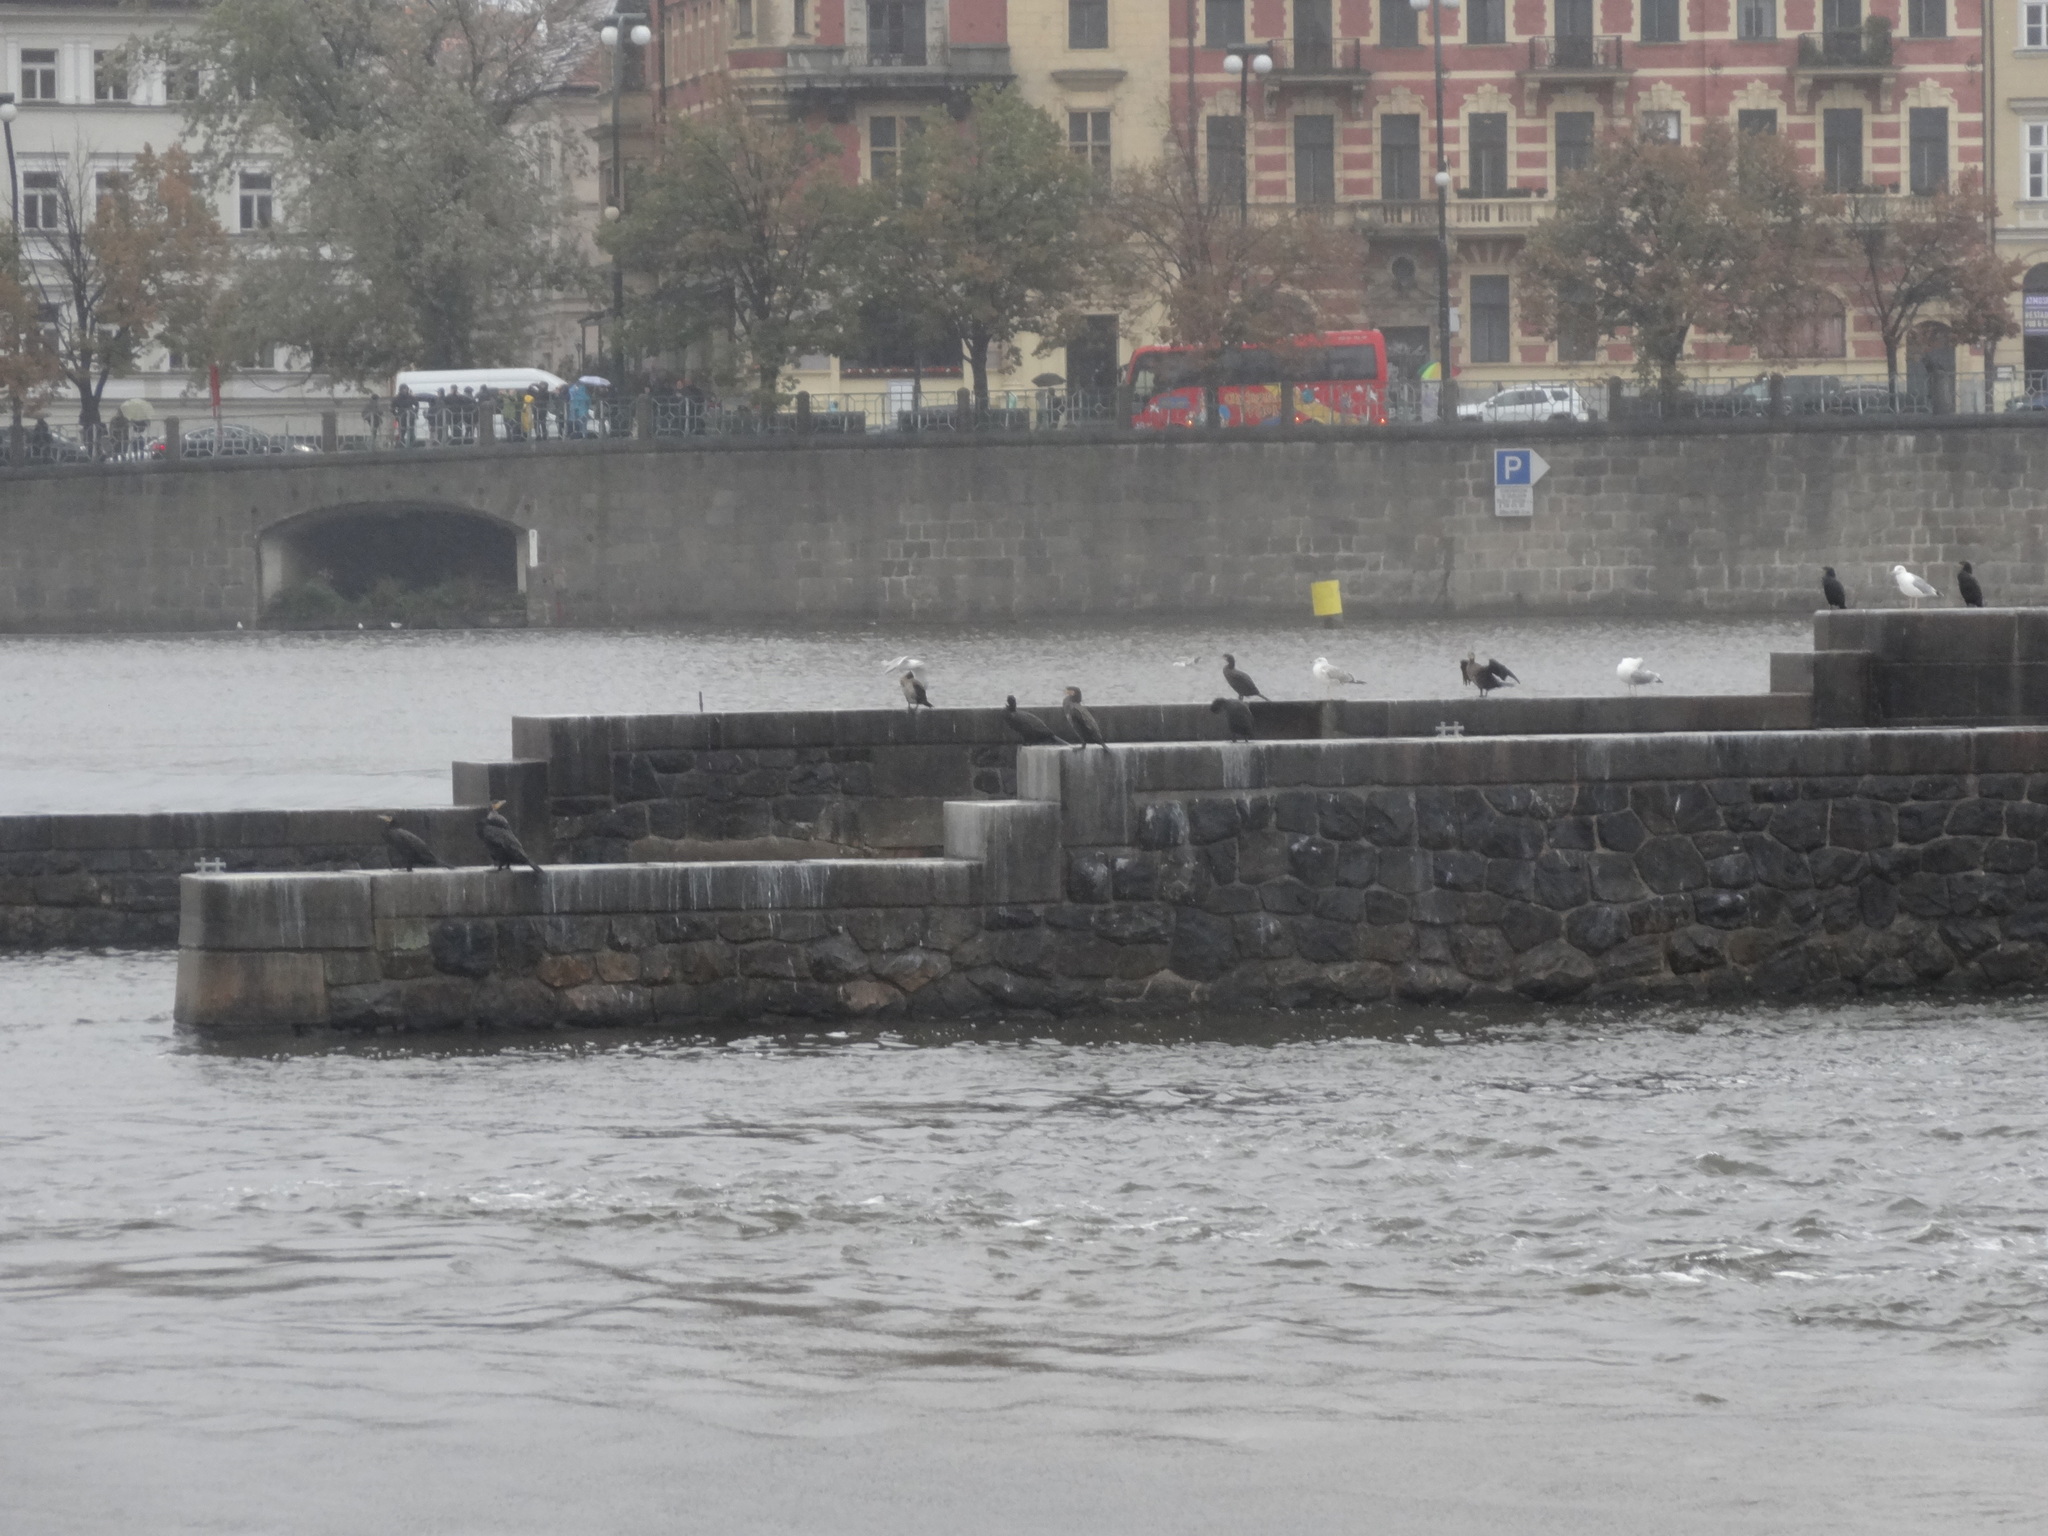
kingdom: Animalia
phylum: Chordata
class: Aves
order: Suliformes
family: Phalacrocoracidae
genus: Phalacrocorax
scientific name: Phalacrocorax carbo
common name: Great cormorant
